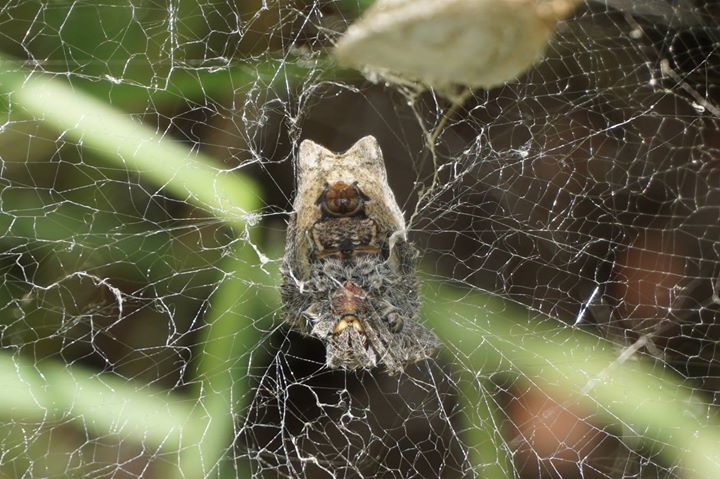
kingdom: Animalia
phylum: Arthropoda
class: Arachnida
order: Araneae
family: Araneidae
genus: Cyrtophora
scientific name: Cyrtophora citricola
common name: Orb weavers
